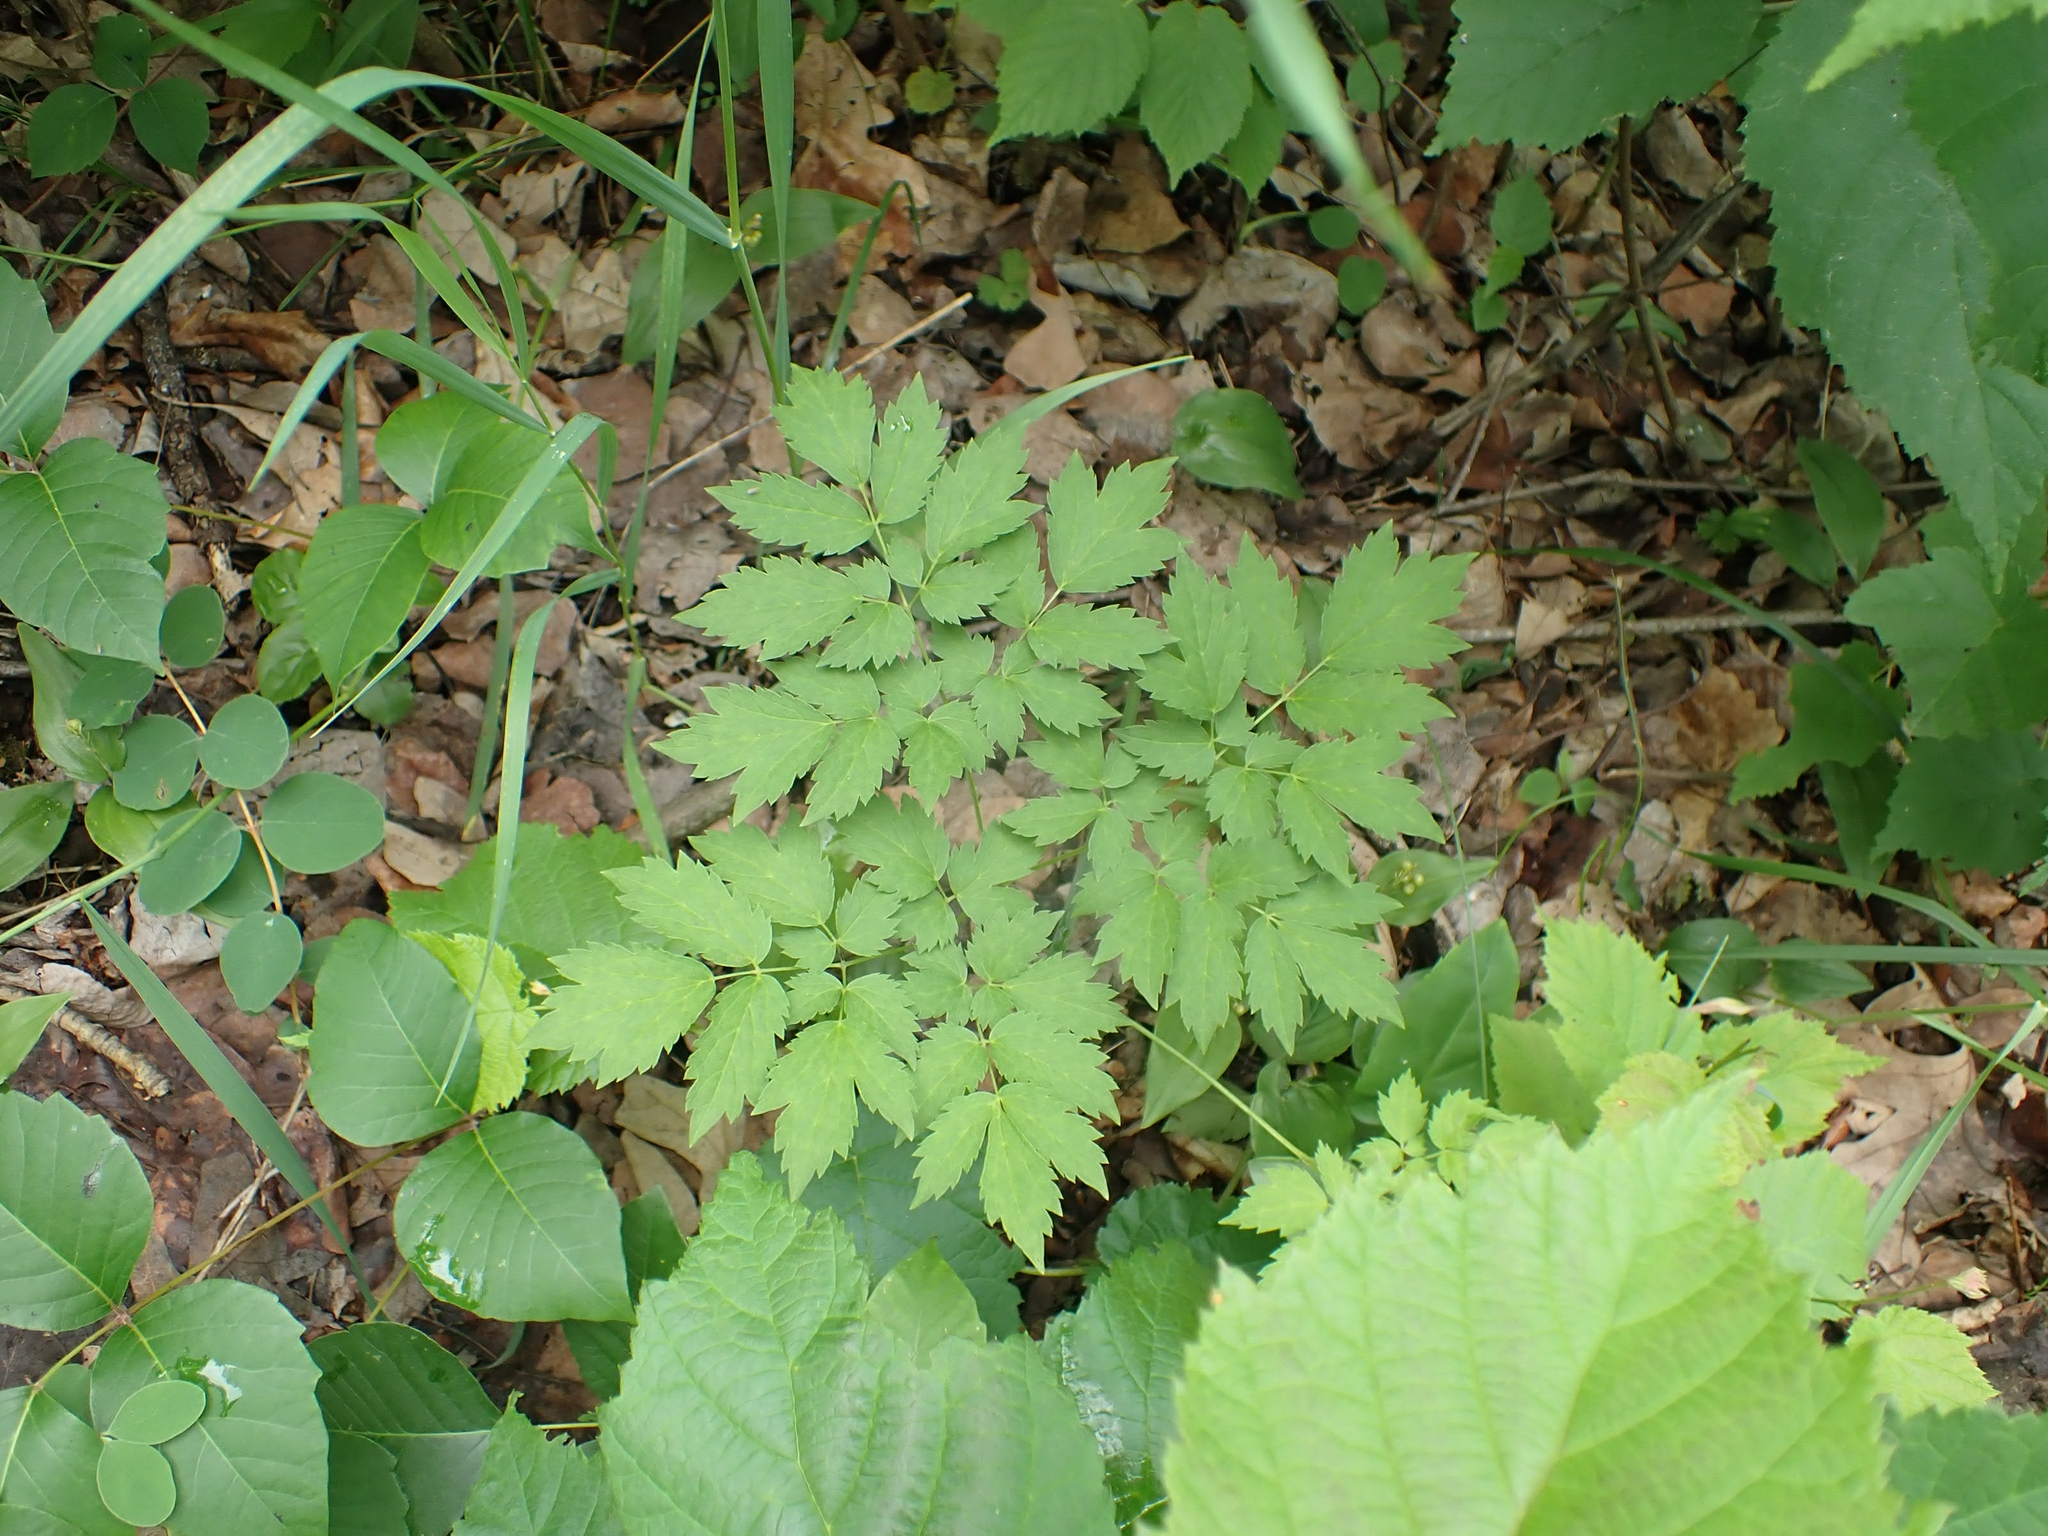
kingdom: Plantae
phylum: Tracheophyta
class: Magnoliopsida
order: Ranunculales
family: Ranunculaceae
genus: Actaea
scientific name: Actaea rubra
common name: Red baneberry
